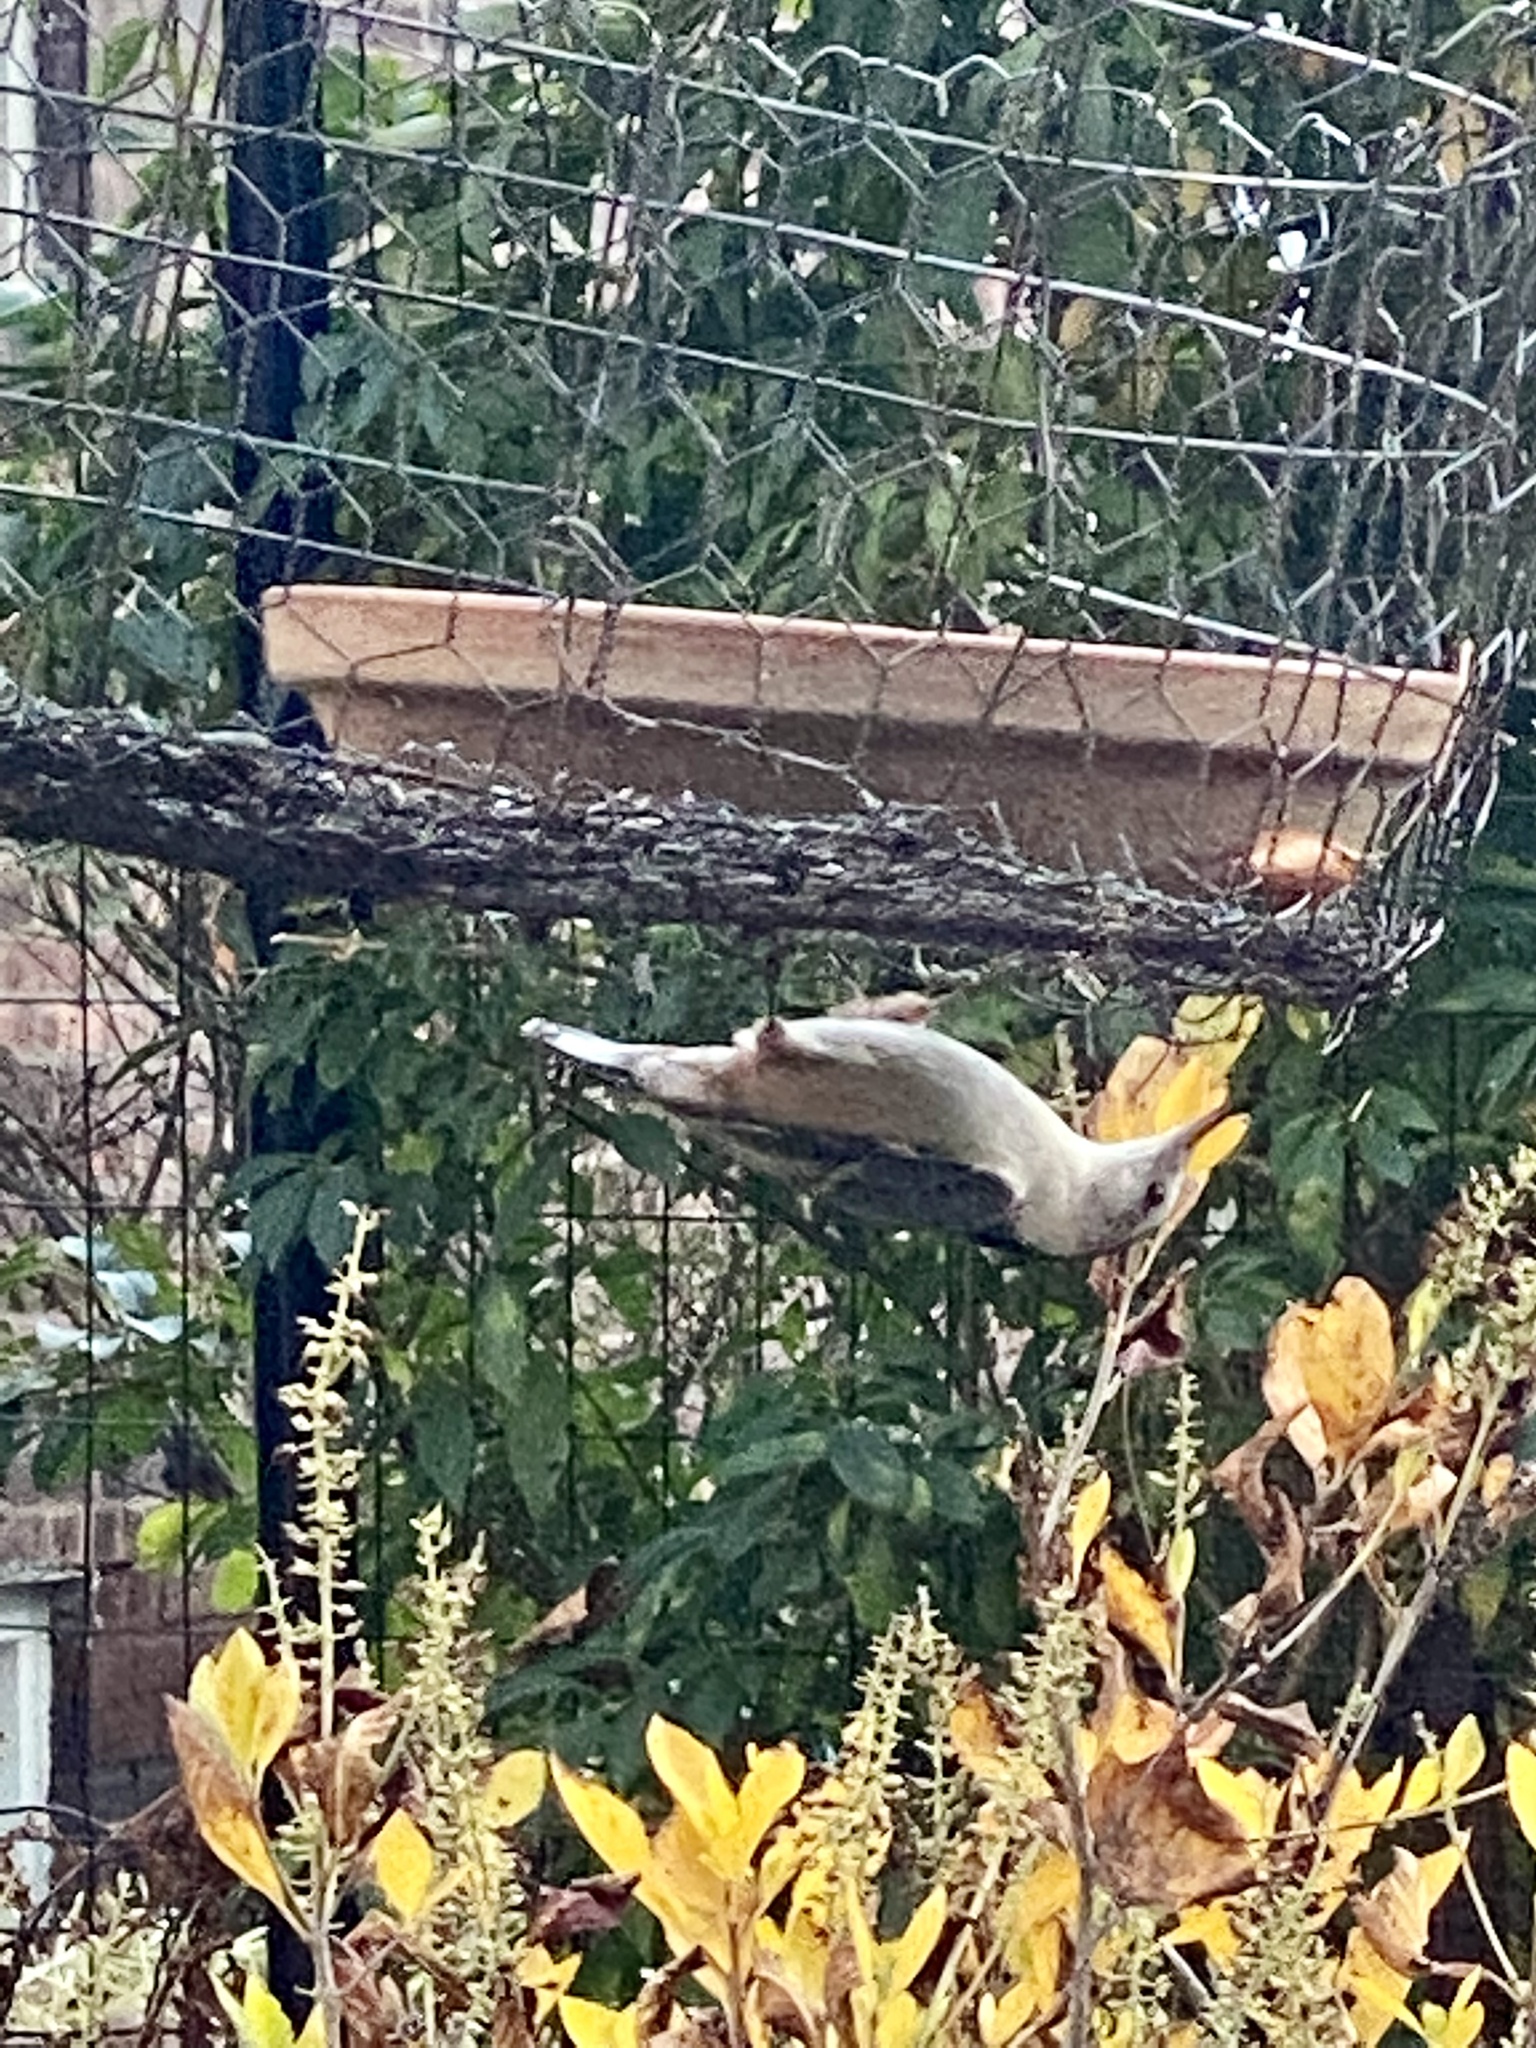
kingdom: Animalia
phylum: Chordata
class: Aves
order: Passeriformes
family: Sittidae
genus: Sitta
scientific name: Sitta carolinensis
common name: White-breasted nuthatch
